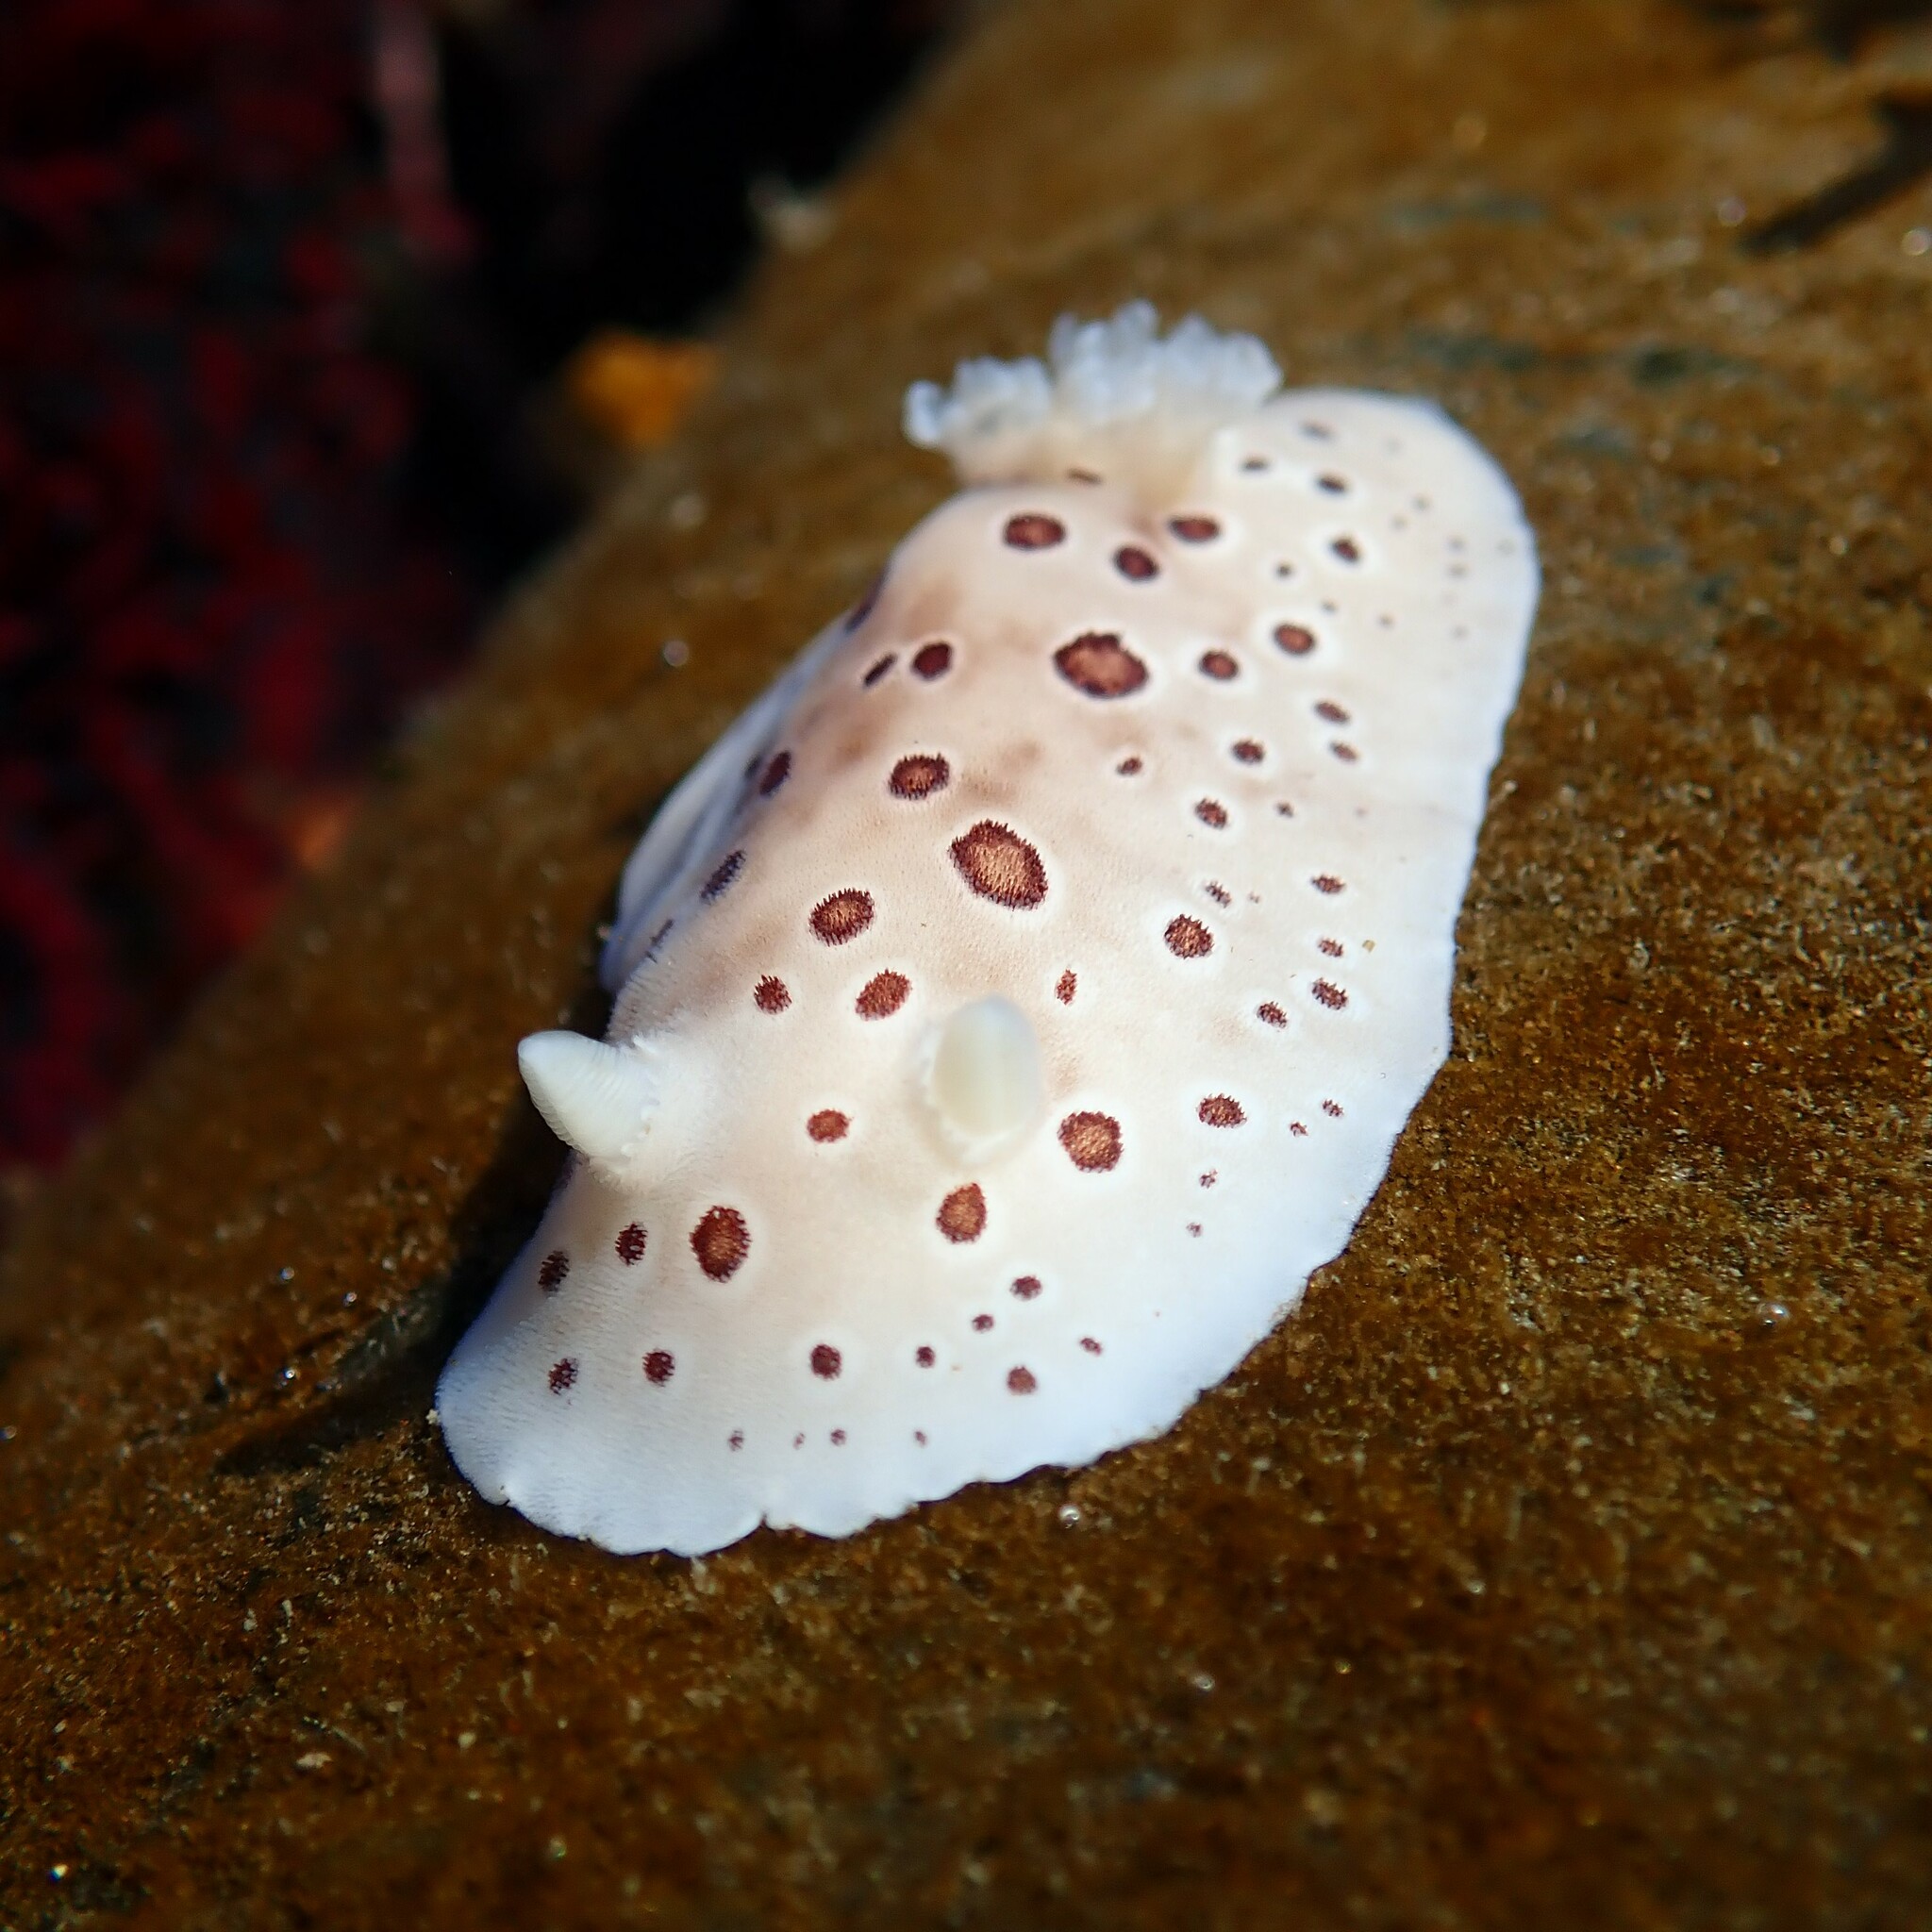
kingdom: Animalia
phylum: Mollusca
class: Gastropoda
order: Nudibranchia
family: Discodorididae
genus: Diaulula
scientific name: Diaulula odonoghuei
